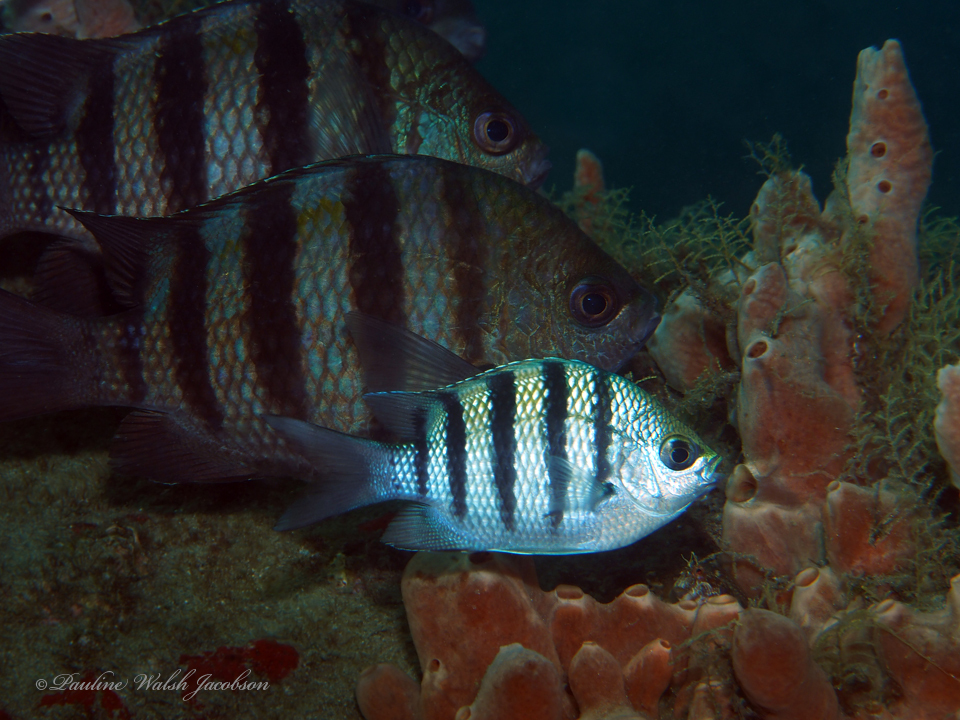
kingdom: Animalia
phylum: Chordata
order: Perciformes
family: Pomacentridae
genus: Abudefduf
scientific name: Abudefduf saxatilis
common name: Sergeant major
